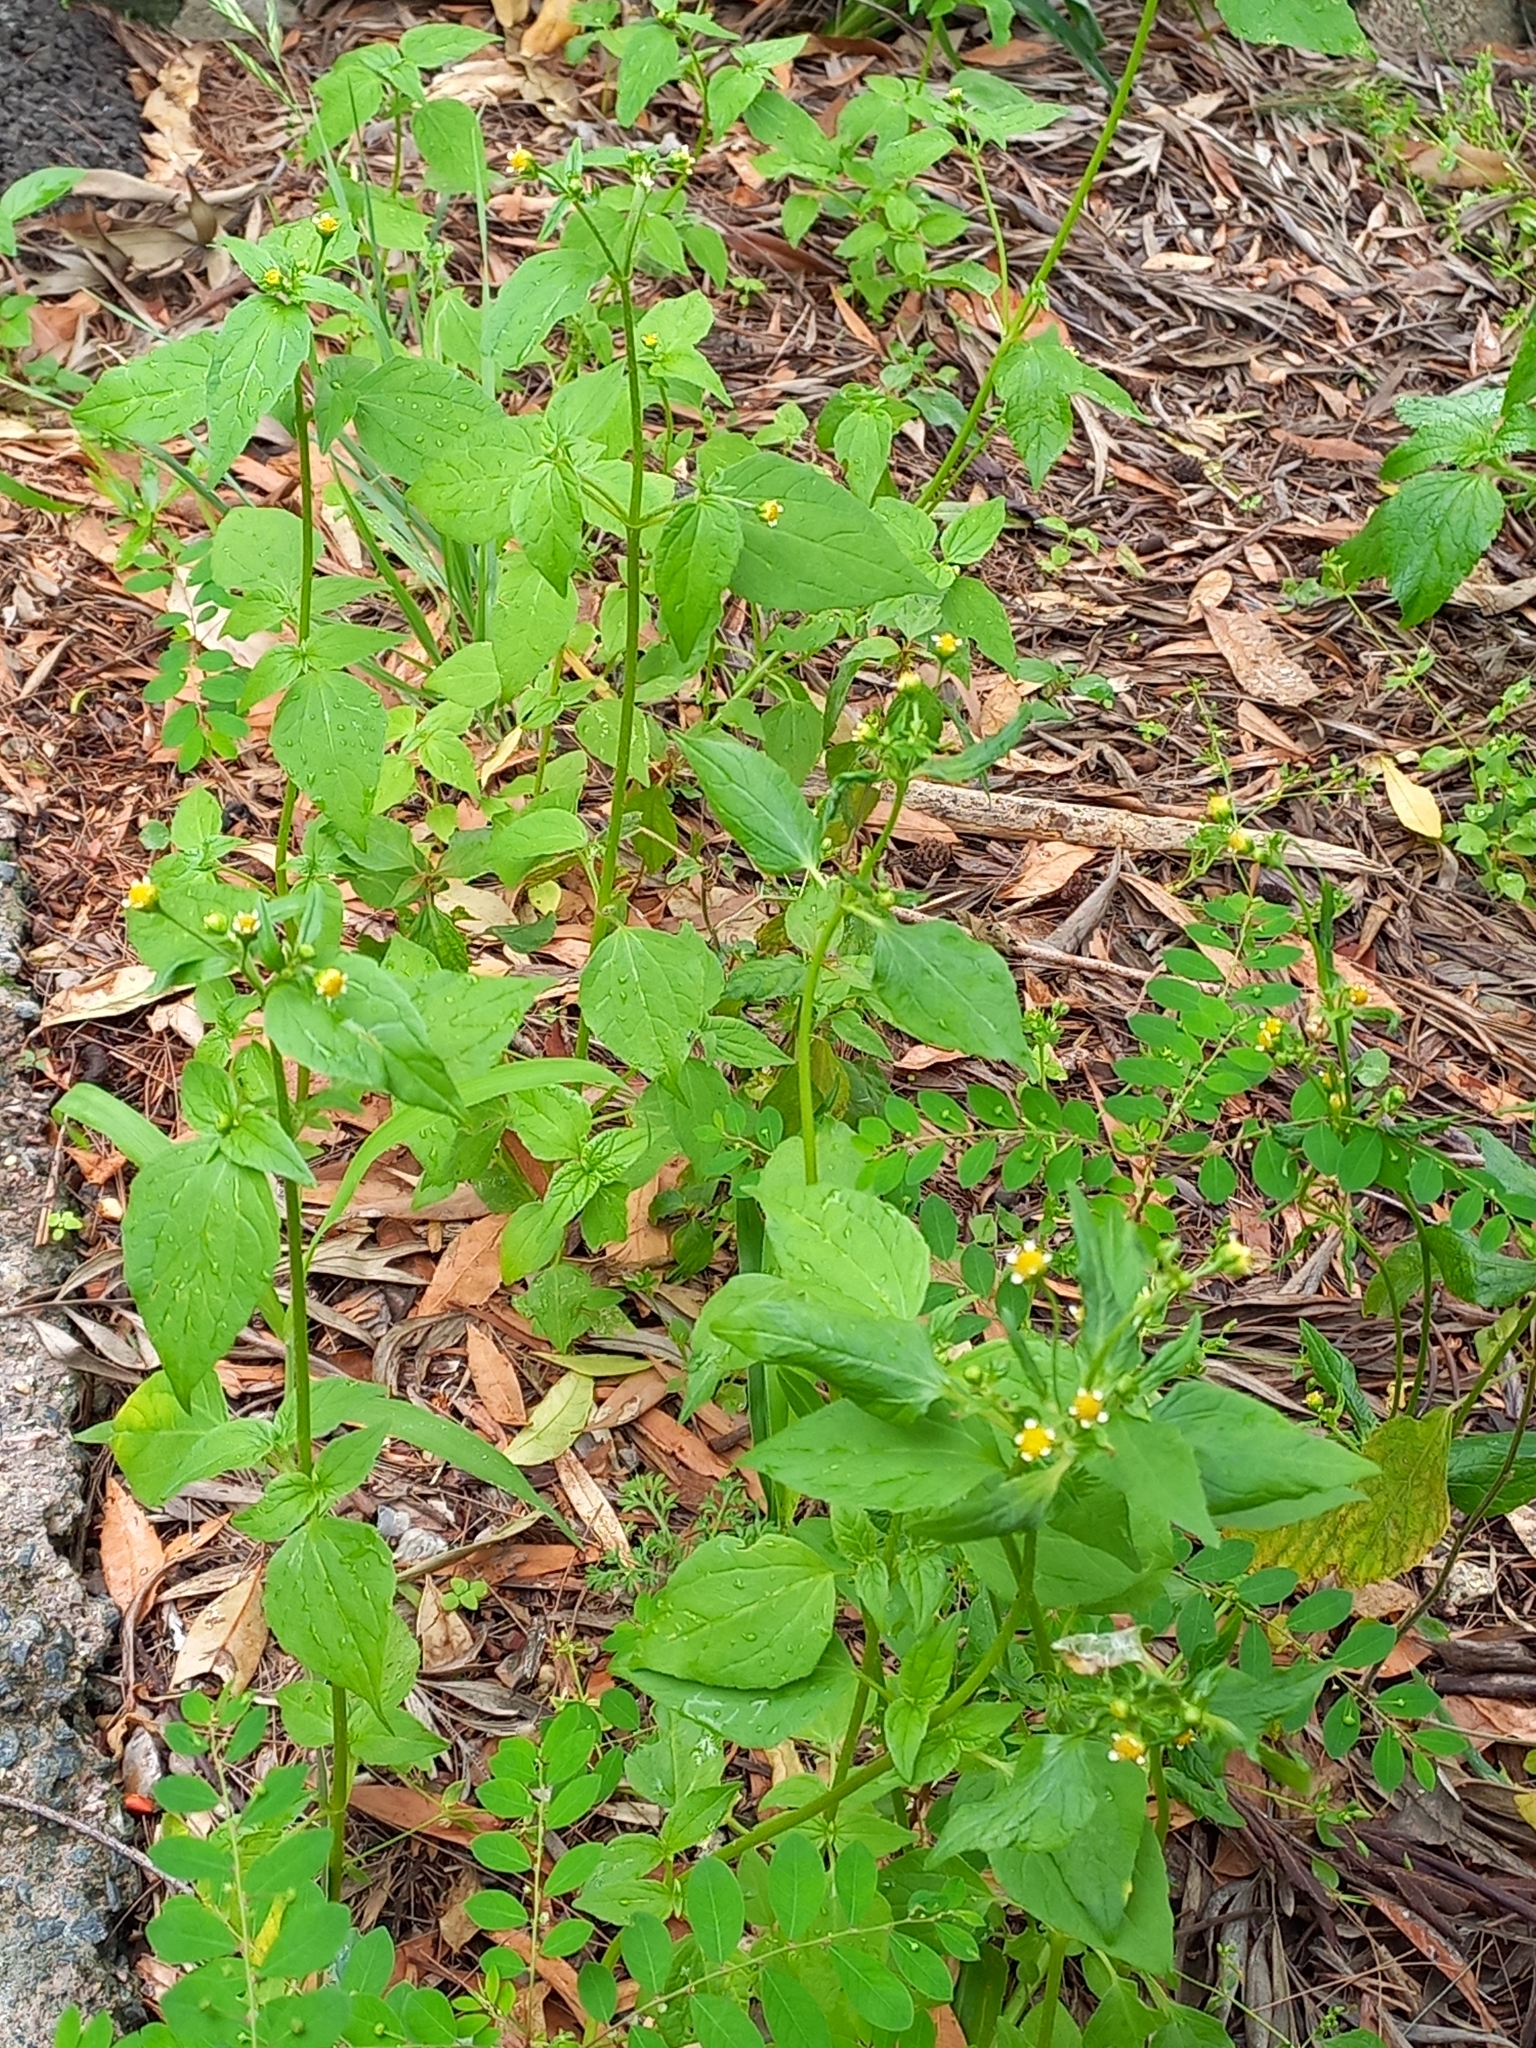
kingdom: Plantae
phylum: Tracheophyta
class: Magnoliopsida
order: Asterales
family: Asteraceae
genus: Galinsoga
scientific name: Galinsoga parviflora
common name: Gallant soldier
